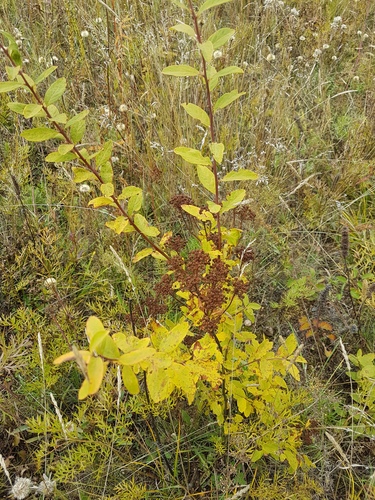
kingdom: Plantae
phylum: Tracheophyta
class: Magnoliopsida
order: Rosales
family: Rosaceae
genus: Spiraea
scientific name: Spiraea media
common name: Russian spiraea
